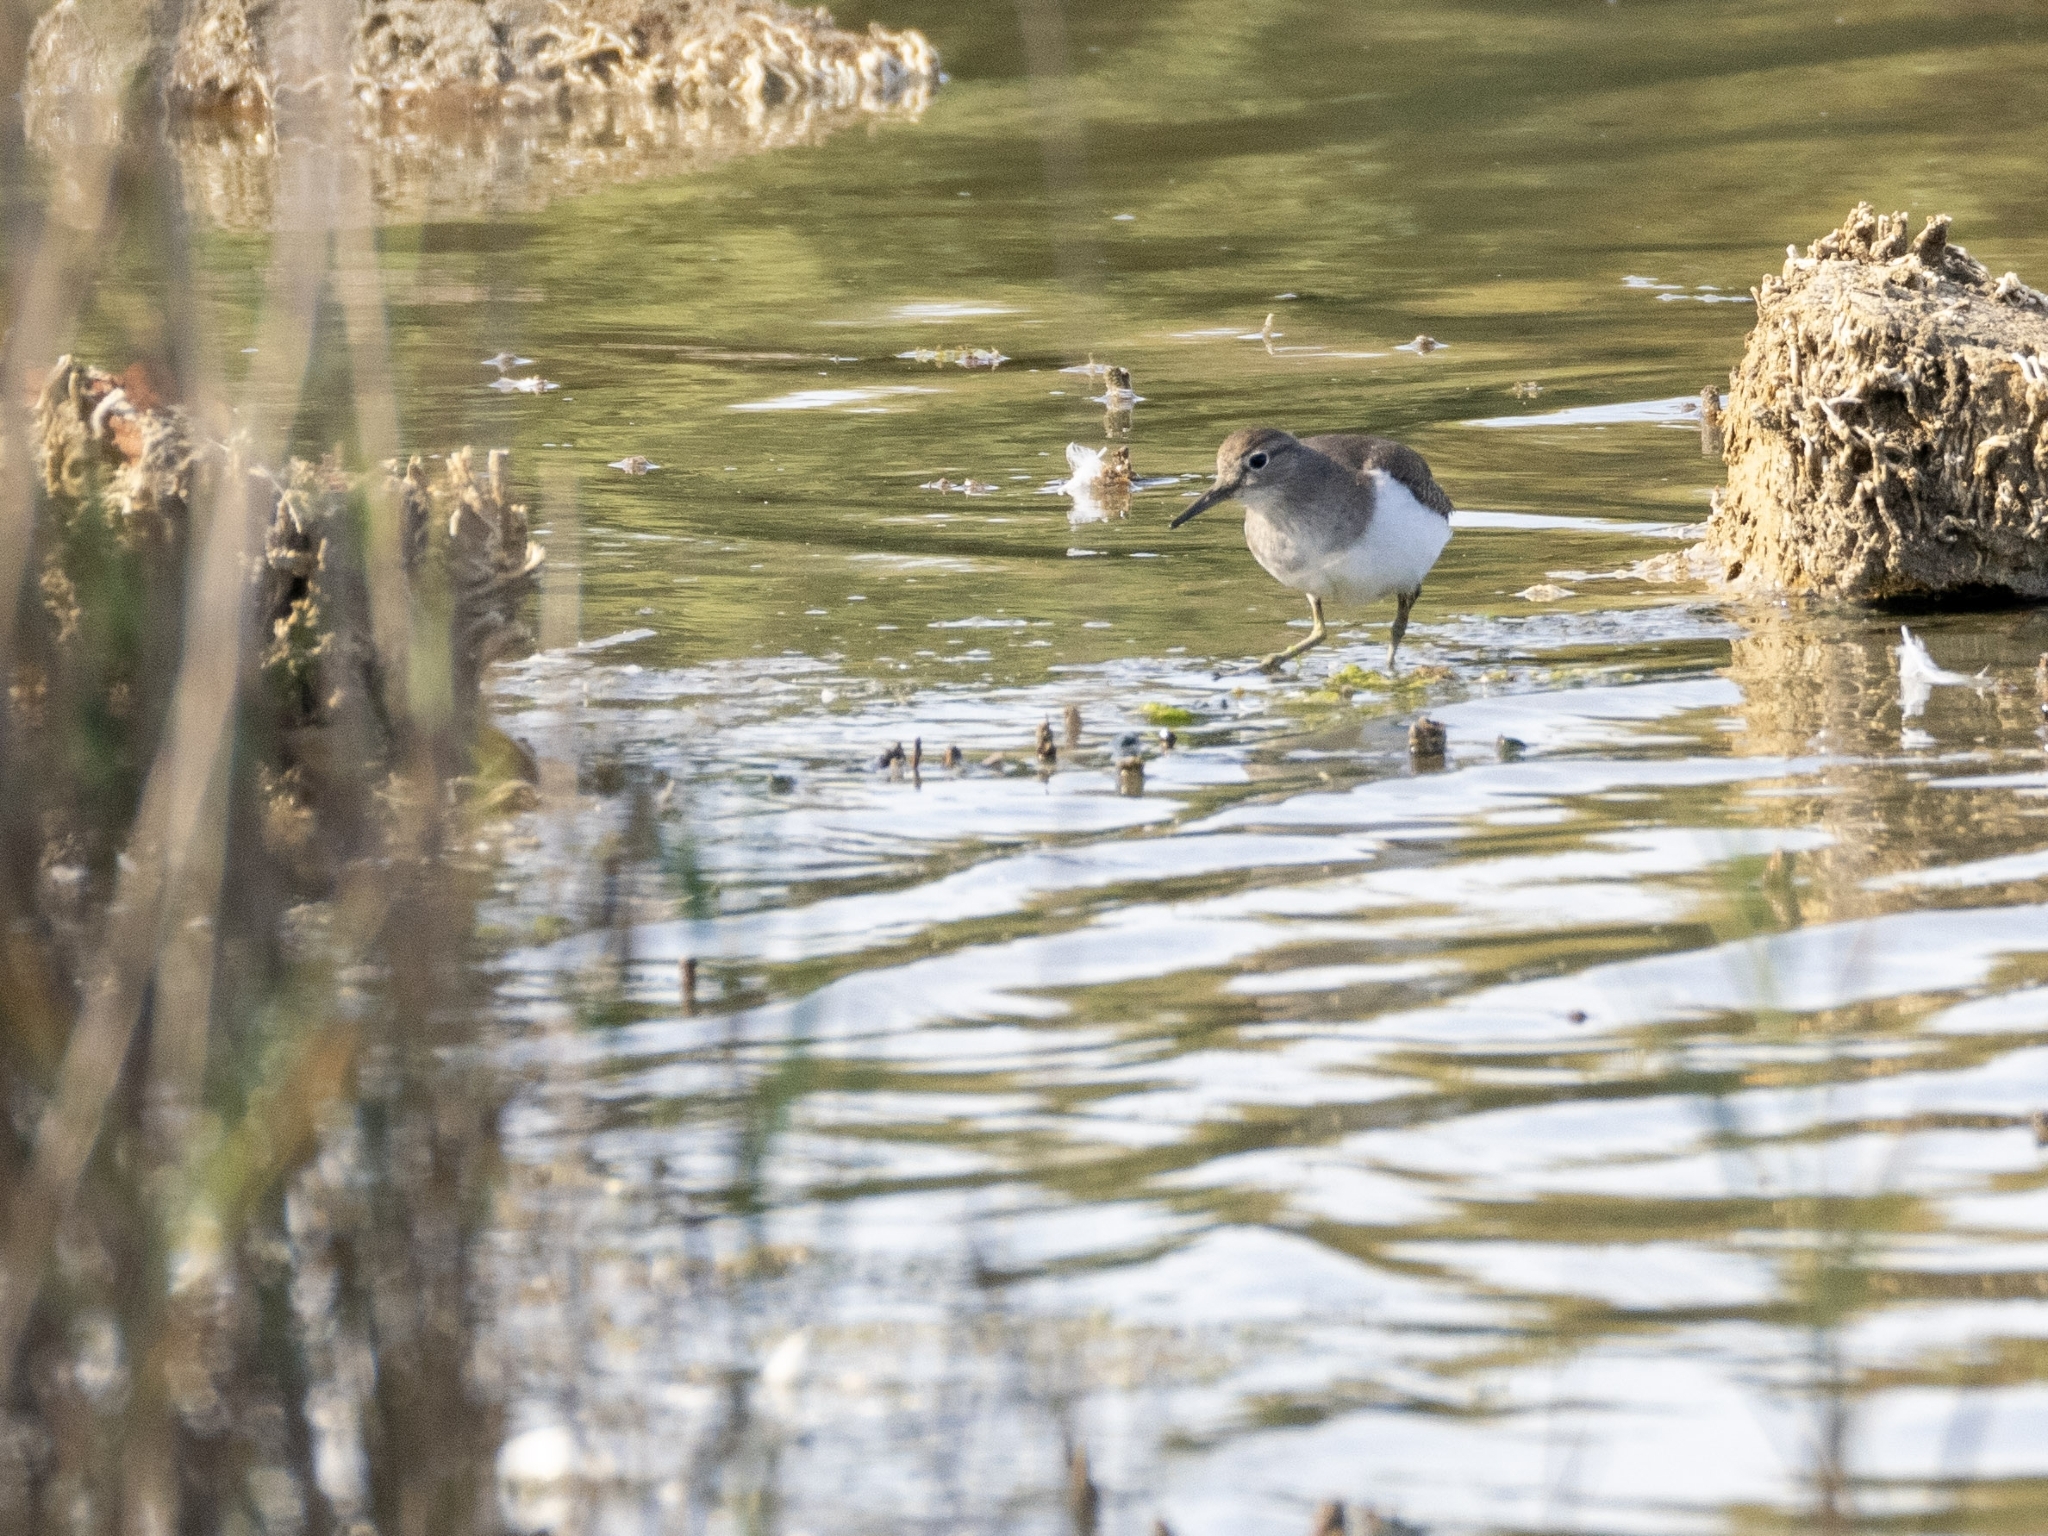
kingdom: Animalia
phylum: Chordata
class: Aves
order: Charadriiformes
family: Scolopacidae
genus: Actitis
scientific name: Actitis hypoleucos
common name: Common sandpiper
